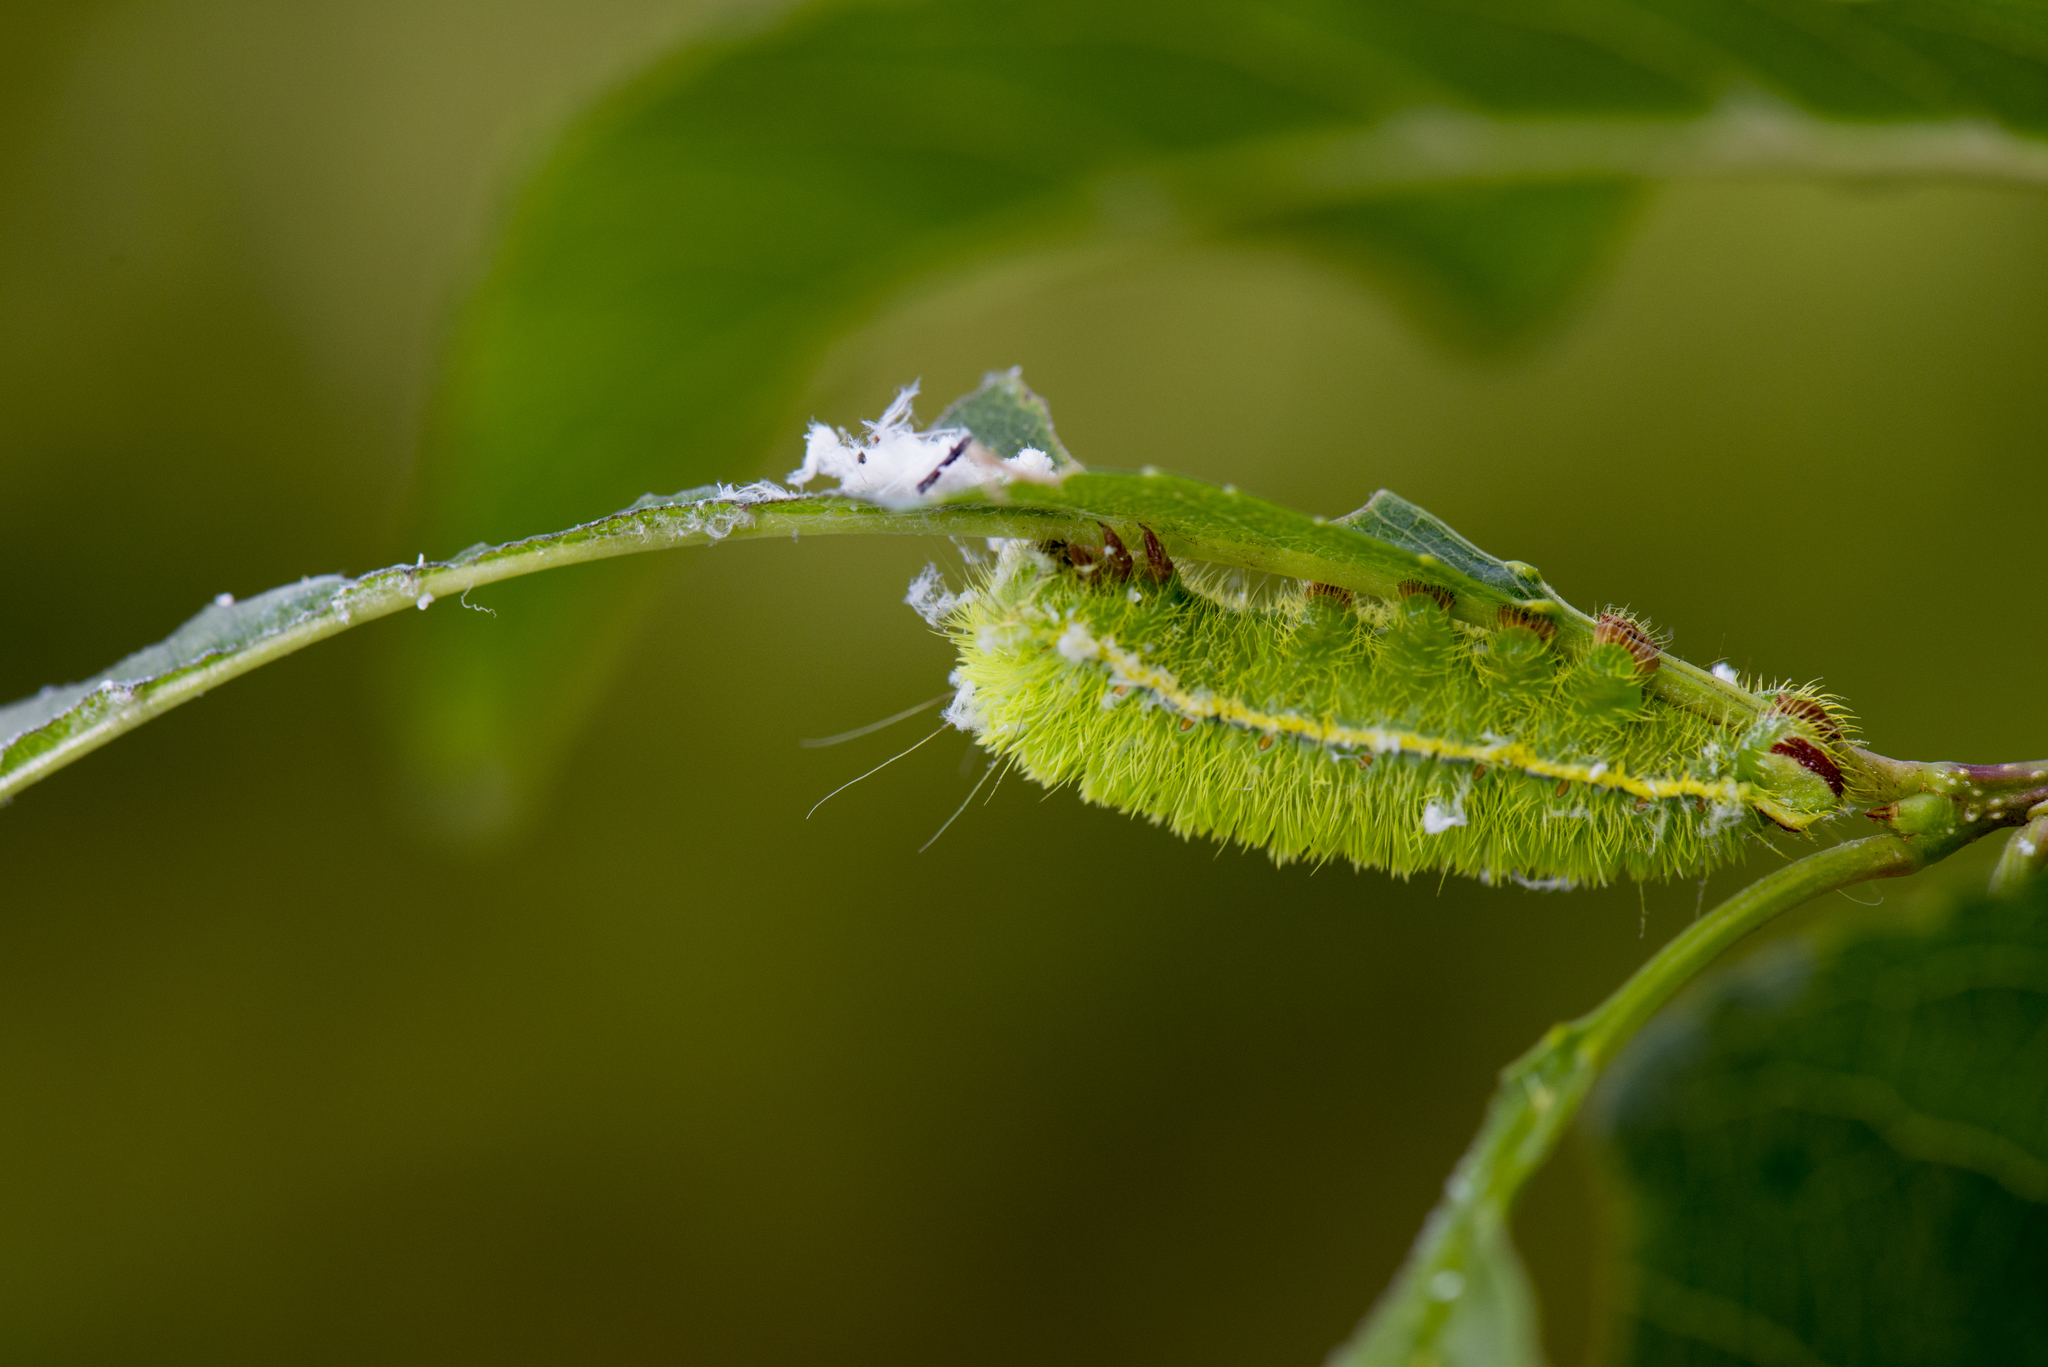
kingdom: Animalia
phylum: Arthropoda
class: Insecta
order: Lepidoptera
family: Saturniidae
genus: Rinaca
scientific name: Rinaca fukudai
